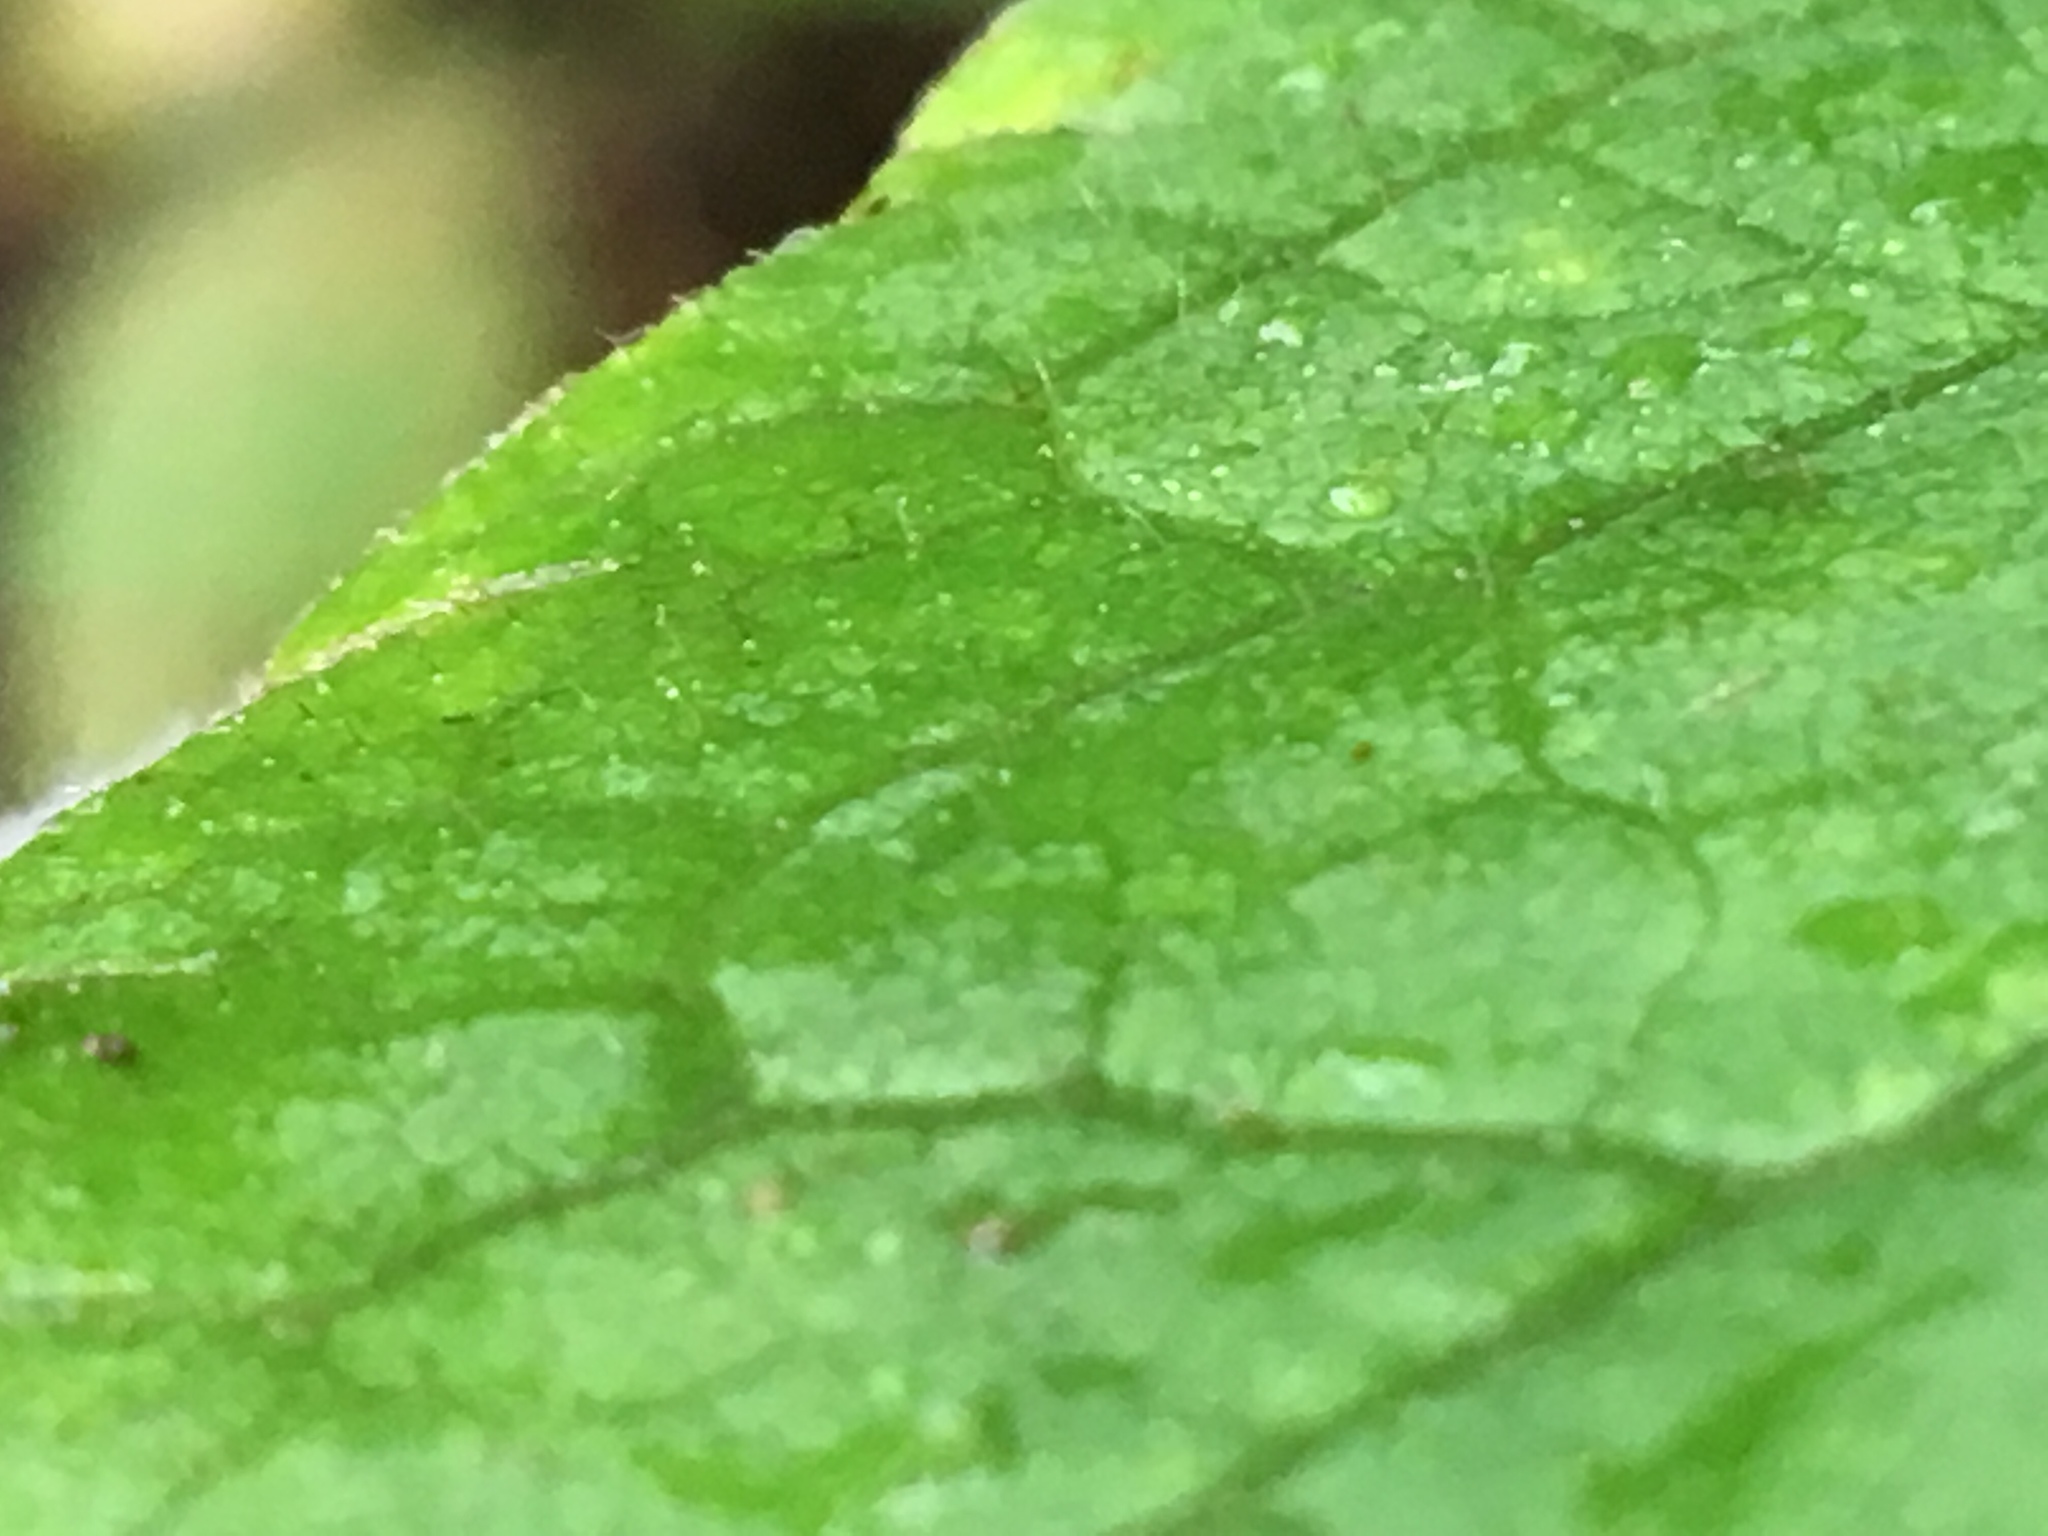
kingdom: Plantae
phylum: Tracheophyta
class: Magnoliopsida
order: Asterales
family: Asteraceae
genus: Eurybia
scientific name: Eurybia divaricata
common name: White wood aster
